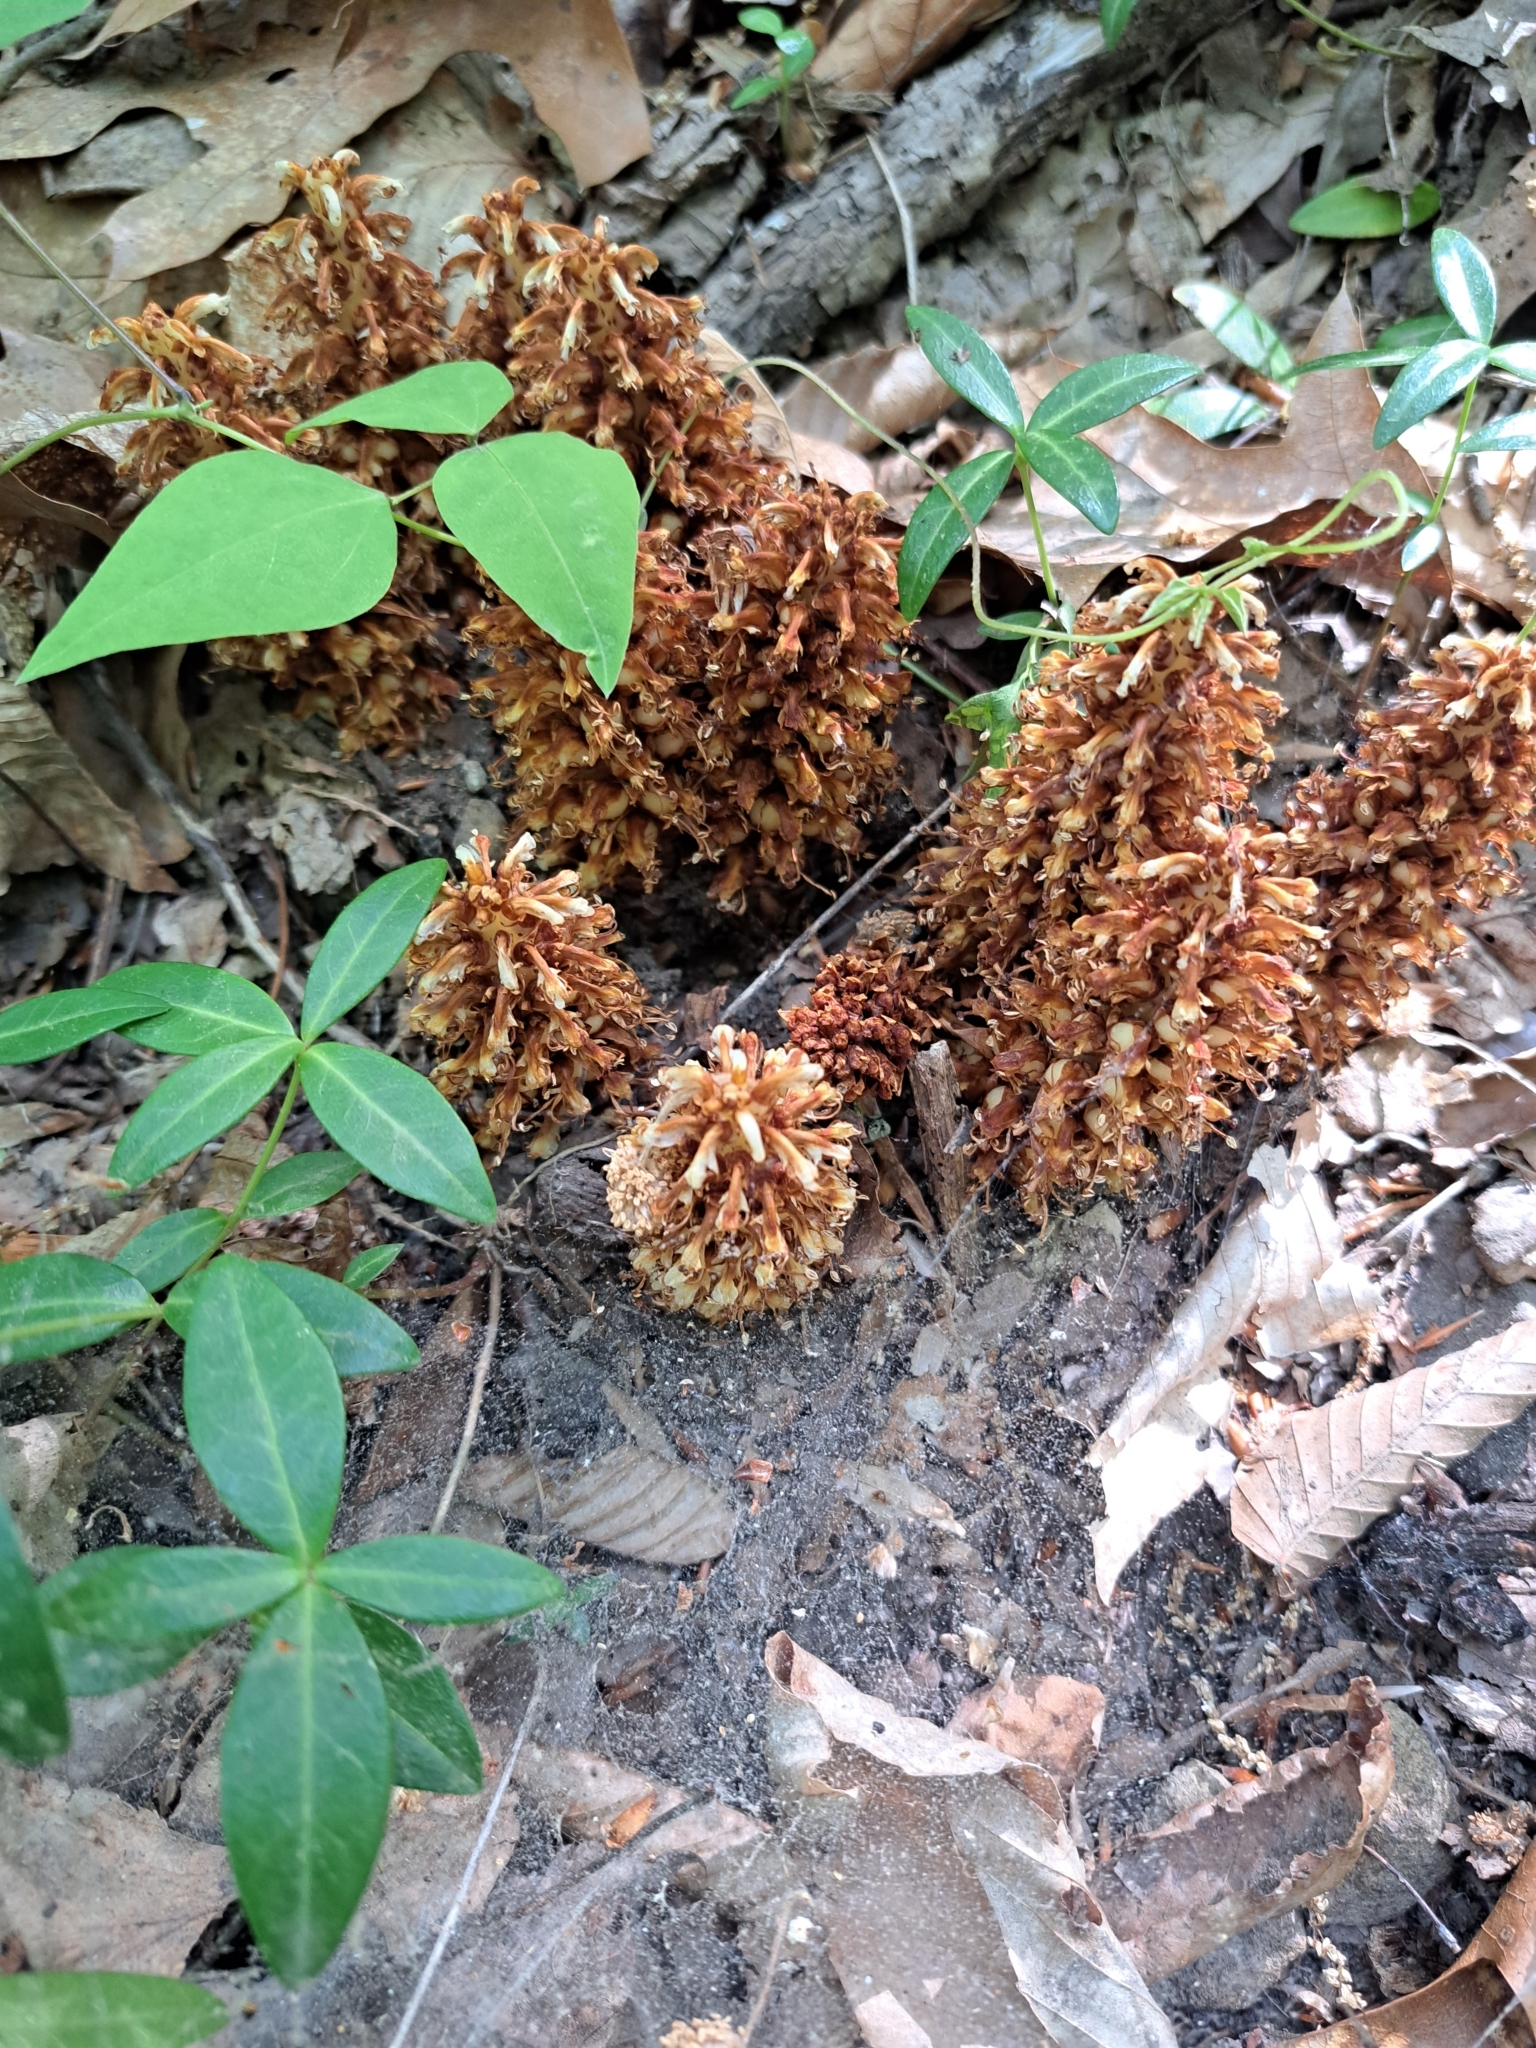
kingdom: Plantae
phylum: Tracheophyta
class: Magnoliopsida
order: Lamiales
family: Orobanchaceae
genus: Conopholis
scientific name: Conopholis americana
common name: American cancer-root
